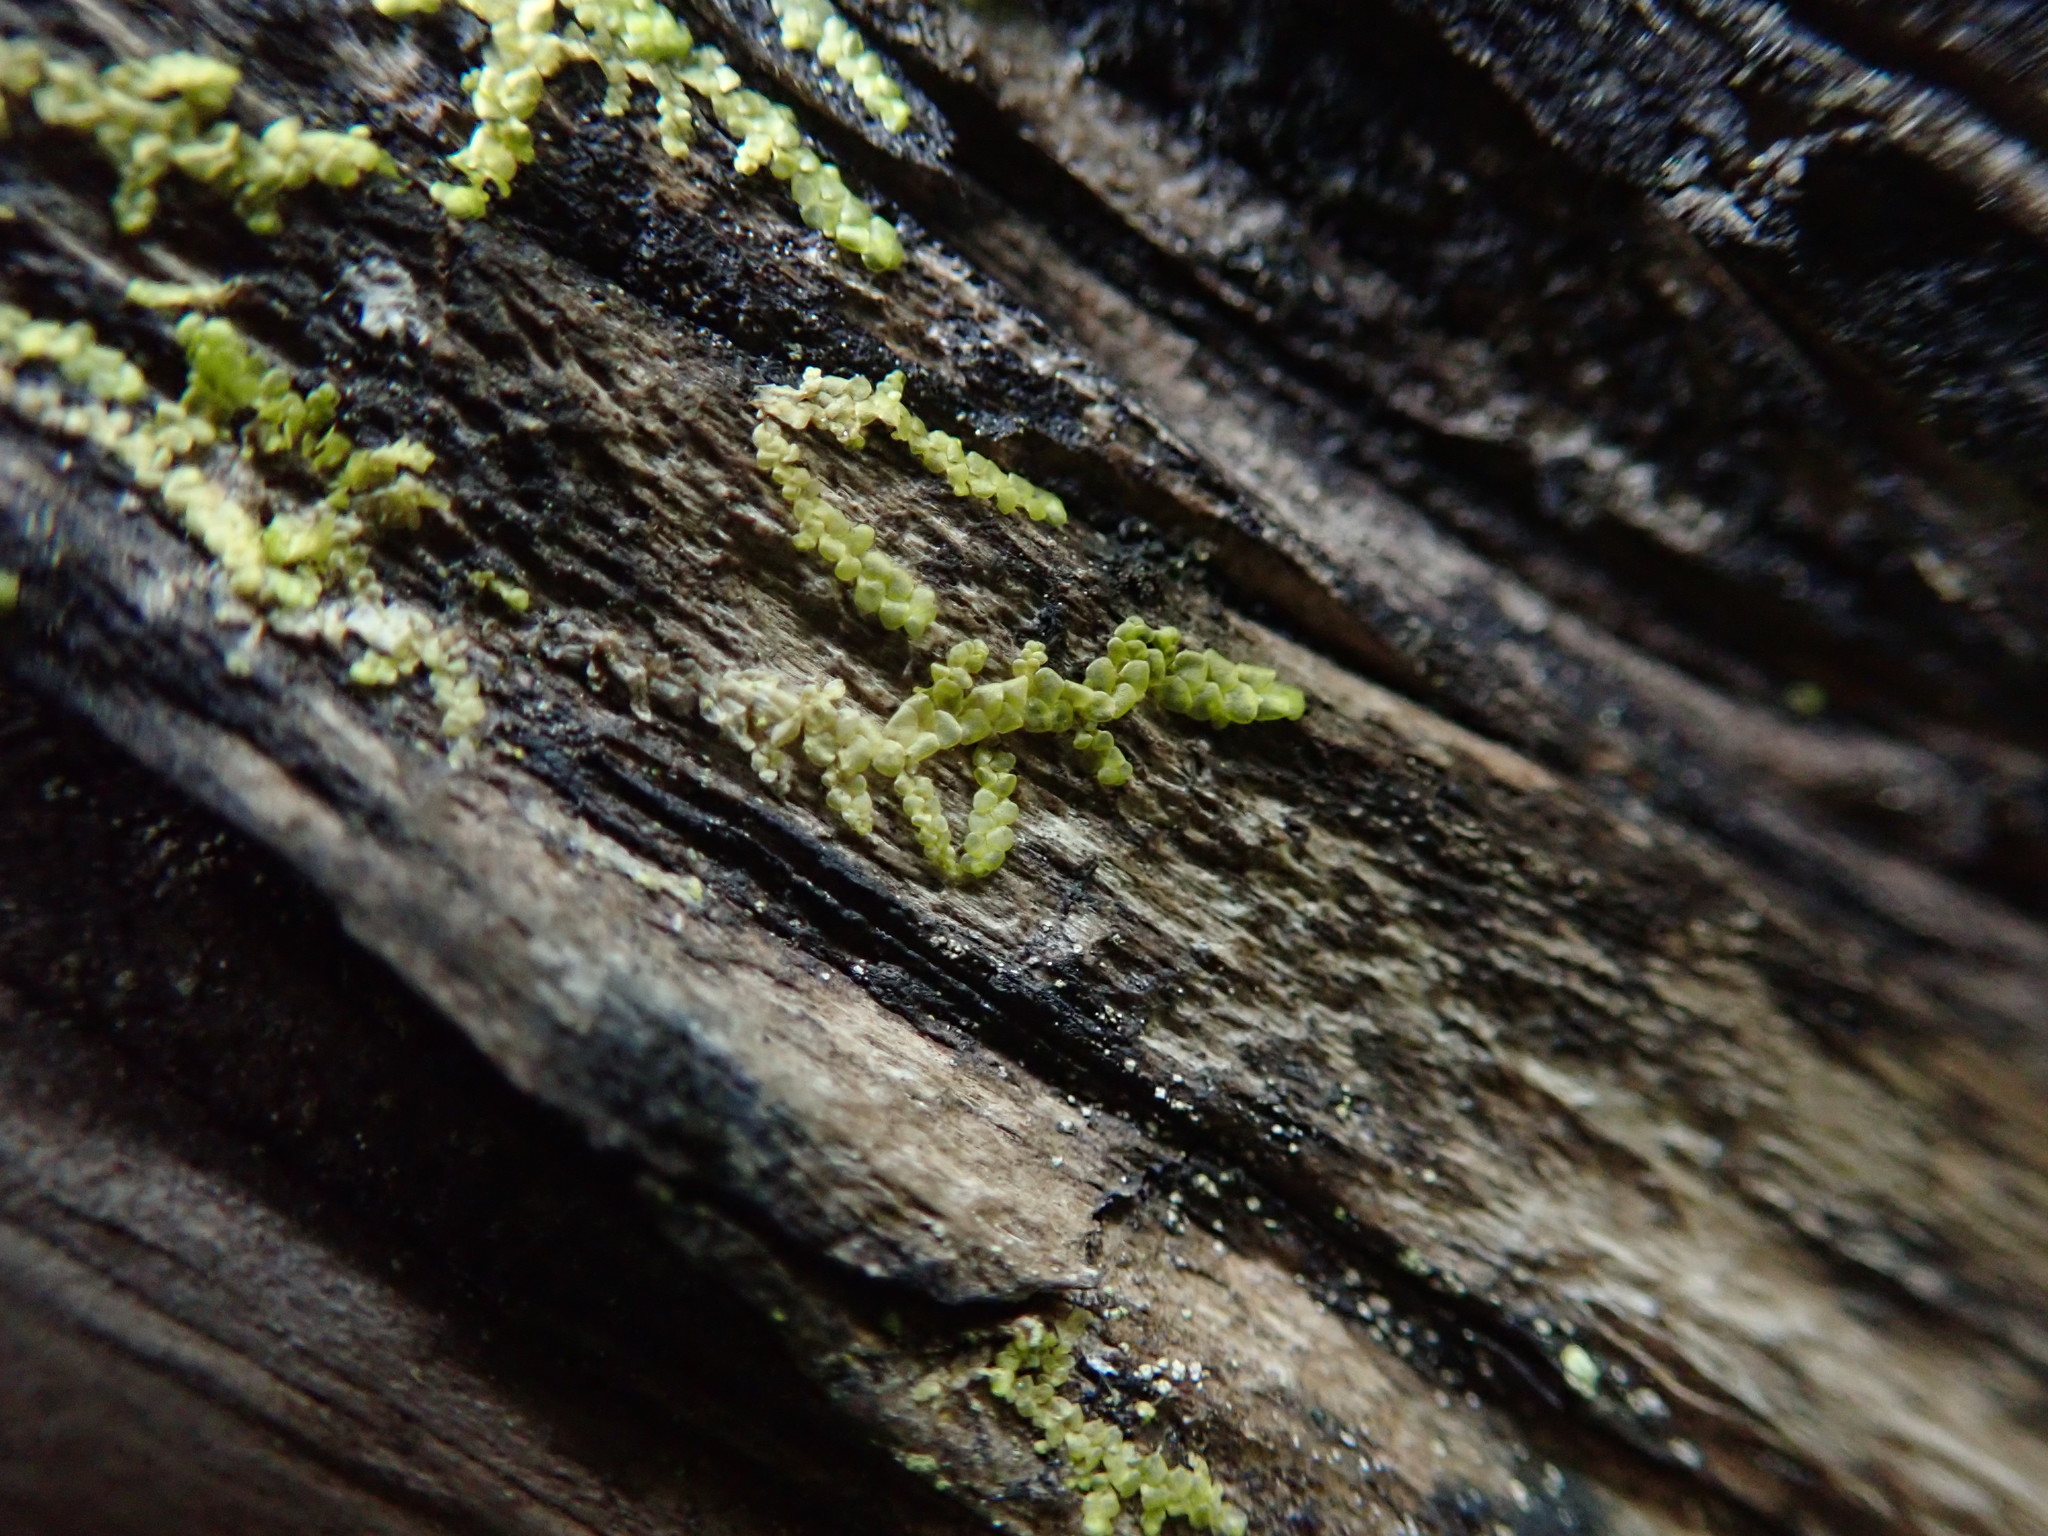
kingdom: Plantae
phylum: Marchantiophyta
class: Jungermanniopsida
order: Porellales
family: Radulaceae
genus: Radula
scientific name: Radula complanata
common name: Flat-leaved scalewort
